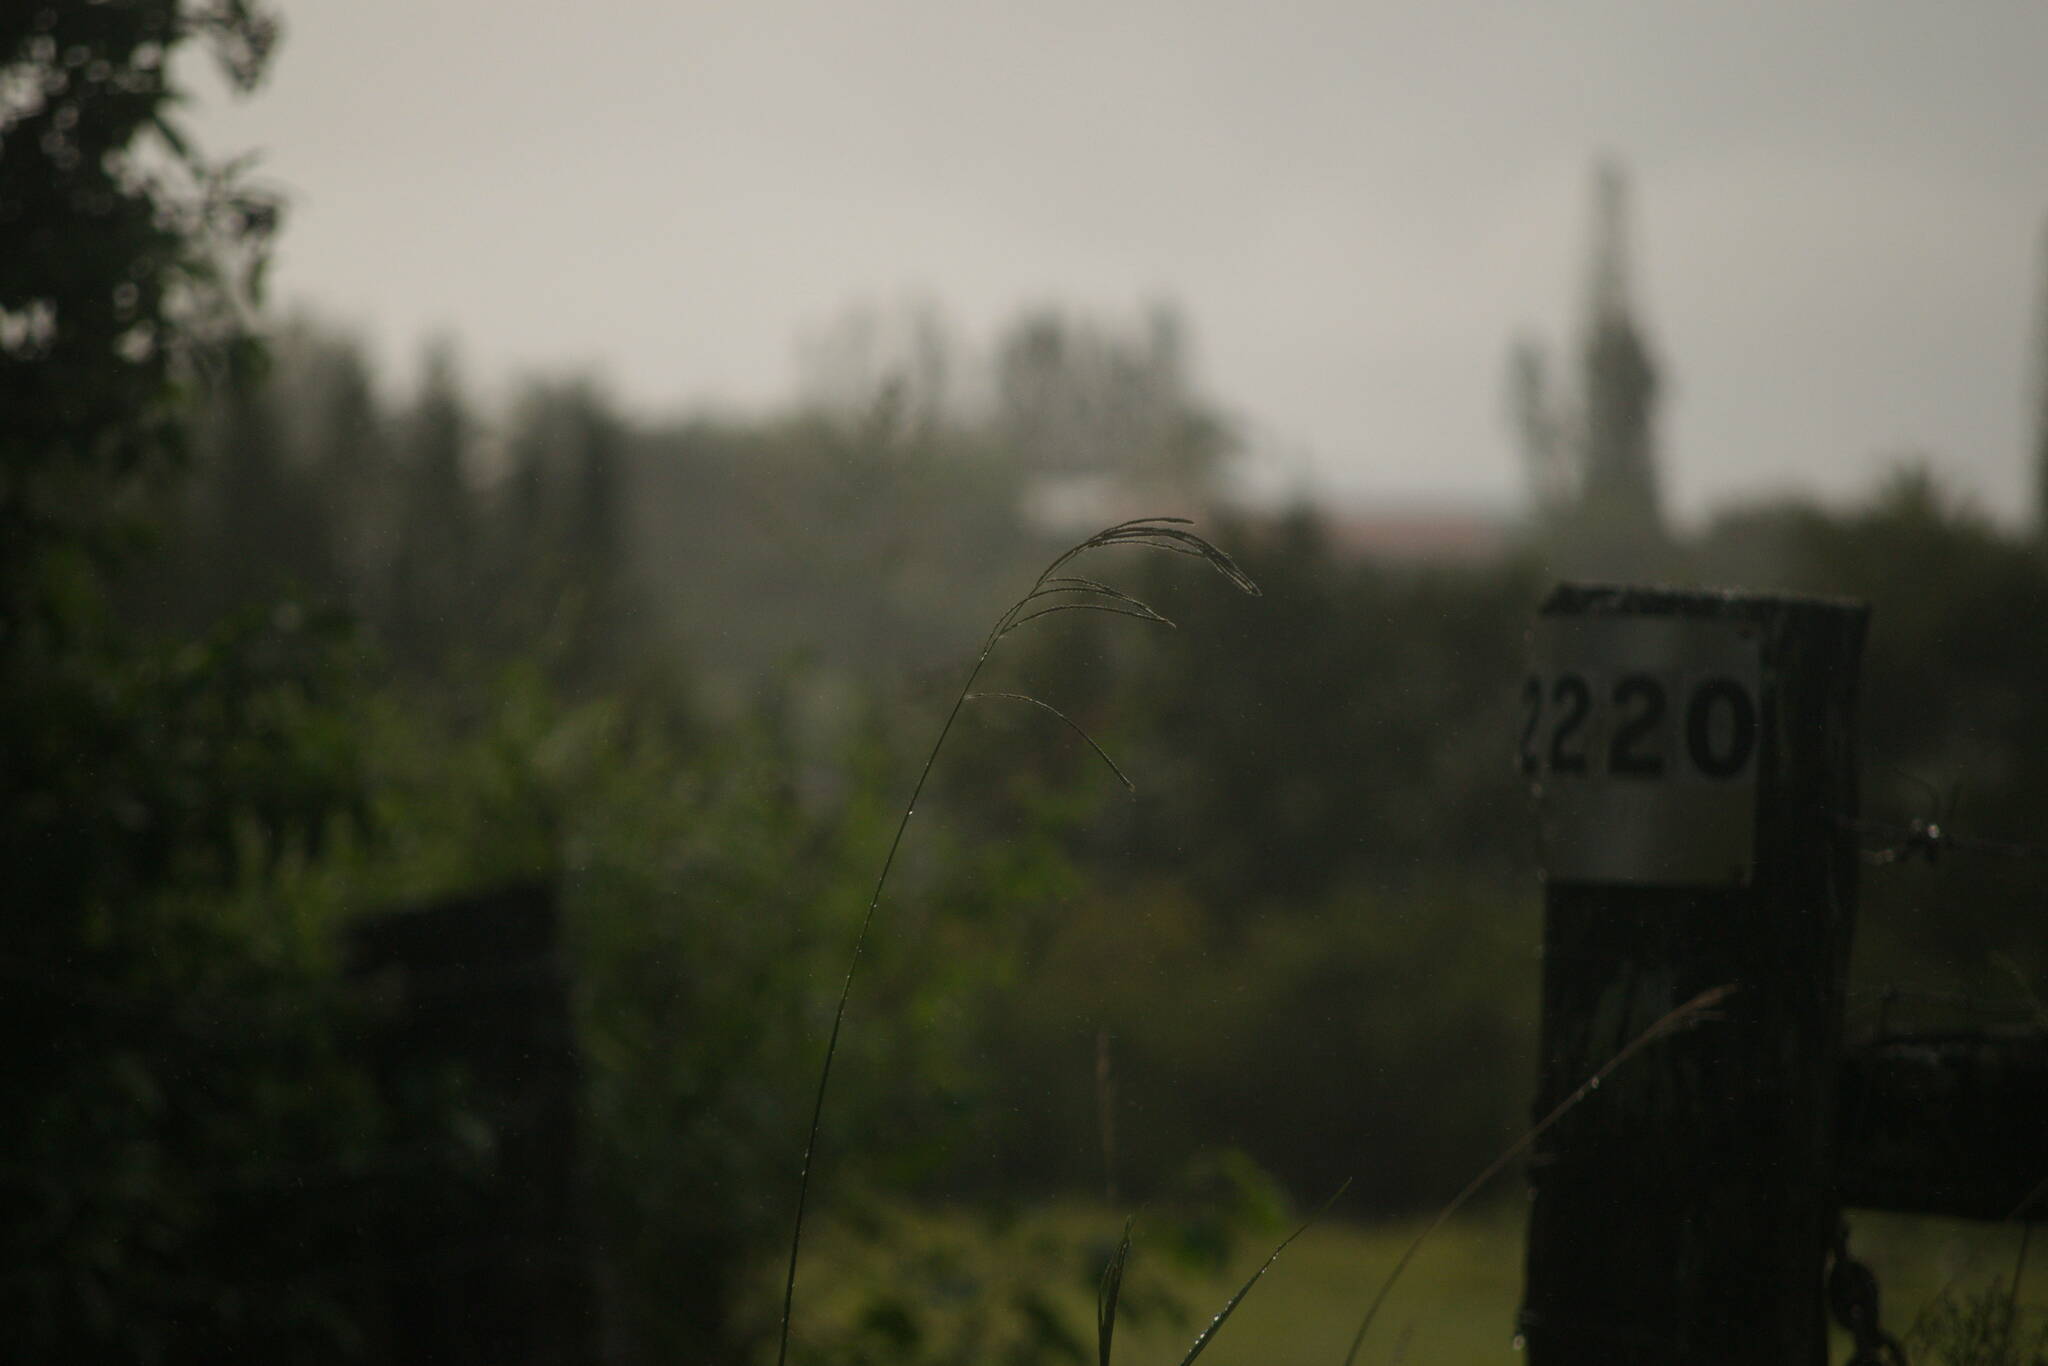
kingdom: Plantae
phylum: Tracheophyta
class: Liliopsida
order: Poales
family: Poaceae
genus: Paspalum
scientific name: Paspalum urvillei
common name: Vasey's grass
